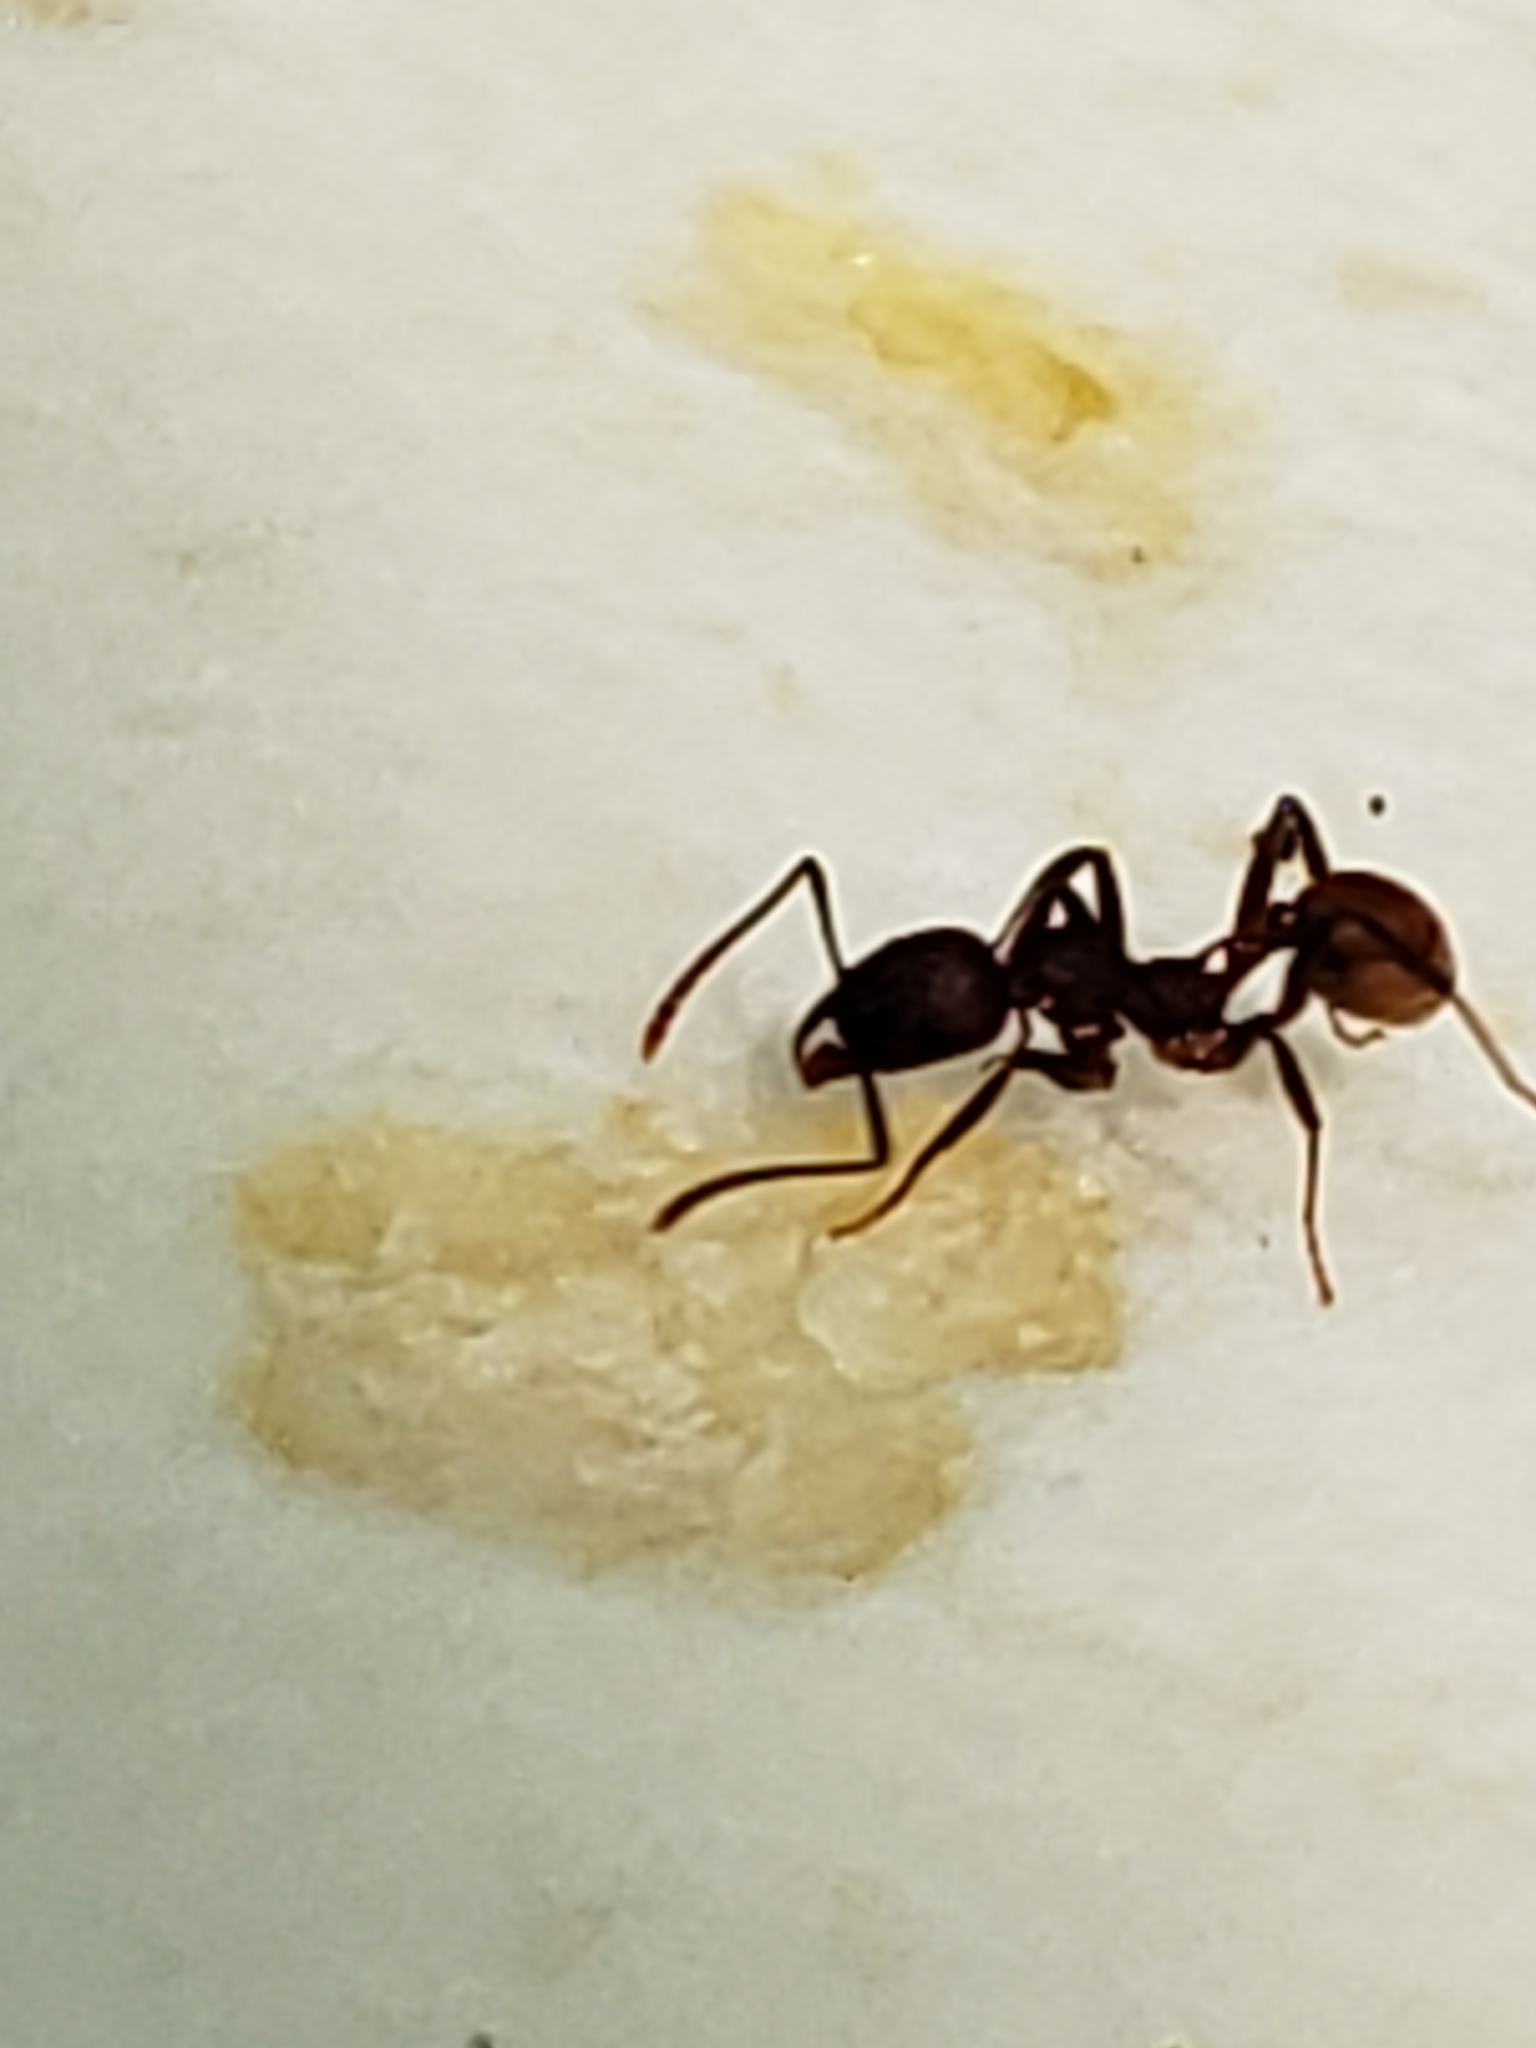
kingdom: Animalia
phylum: Arthropoda
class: Insecta
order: Hymenoptera
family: Formicidae
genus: Aphaenogaster
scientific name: Aphaenogaster tennesseensis
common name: Tennessee thread-waisted ant
